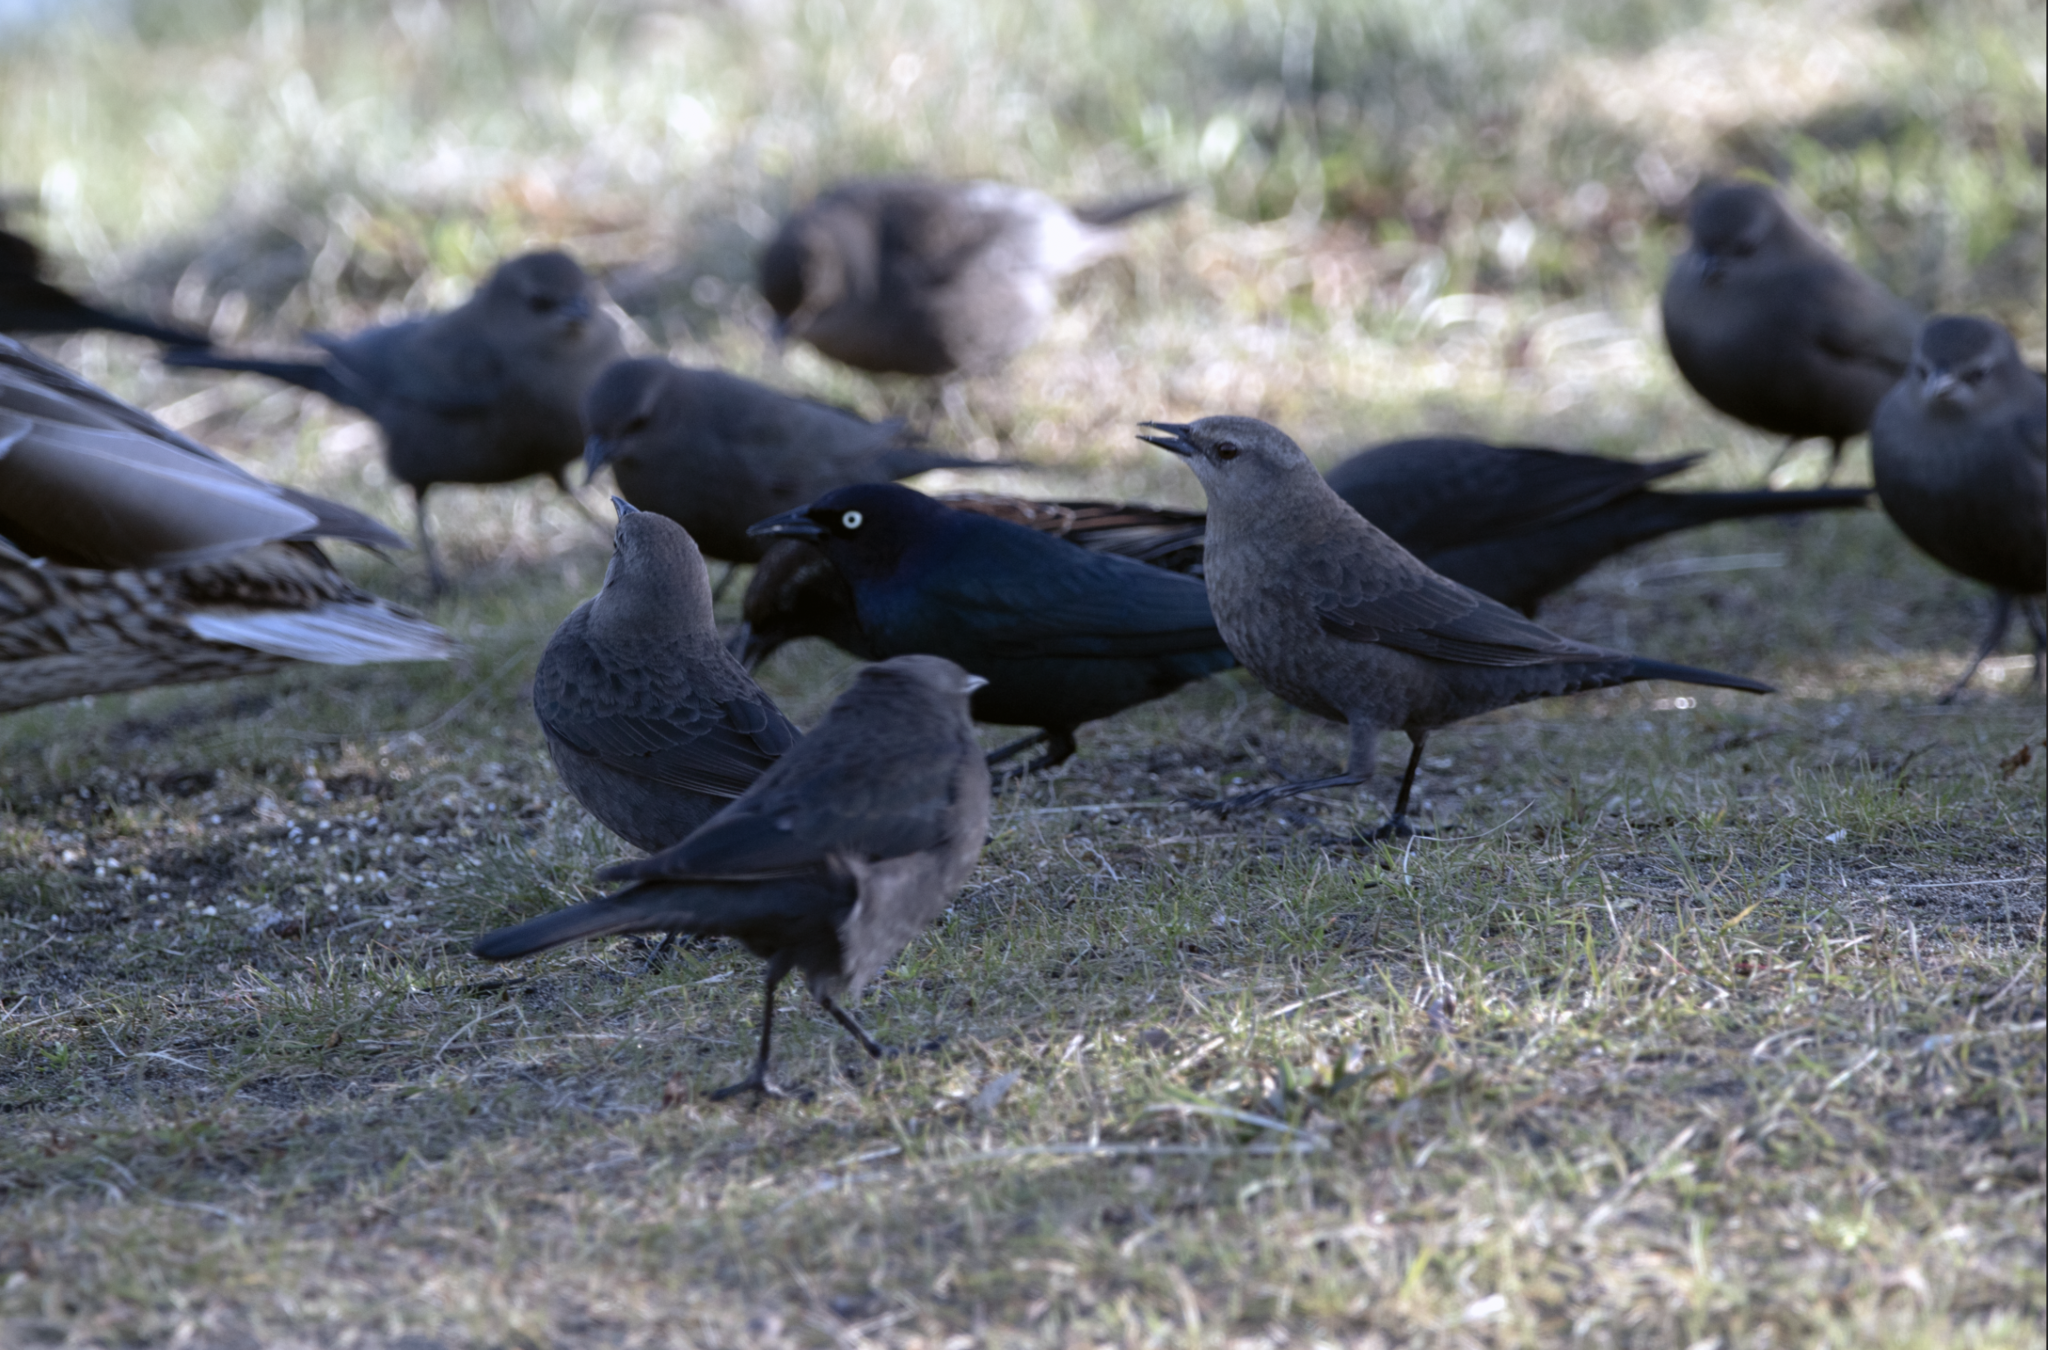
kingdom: Animalia
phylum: Chordata
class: Aves
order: Passeriformes
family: Icteridae
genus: Euphagus
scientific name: Euphagus cyanocephalus
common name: Brewer's blackbird
